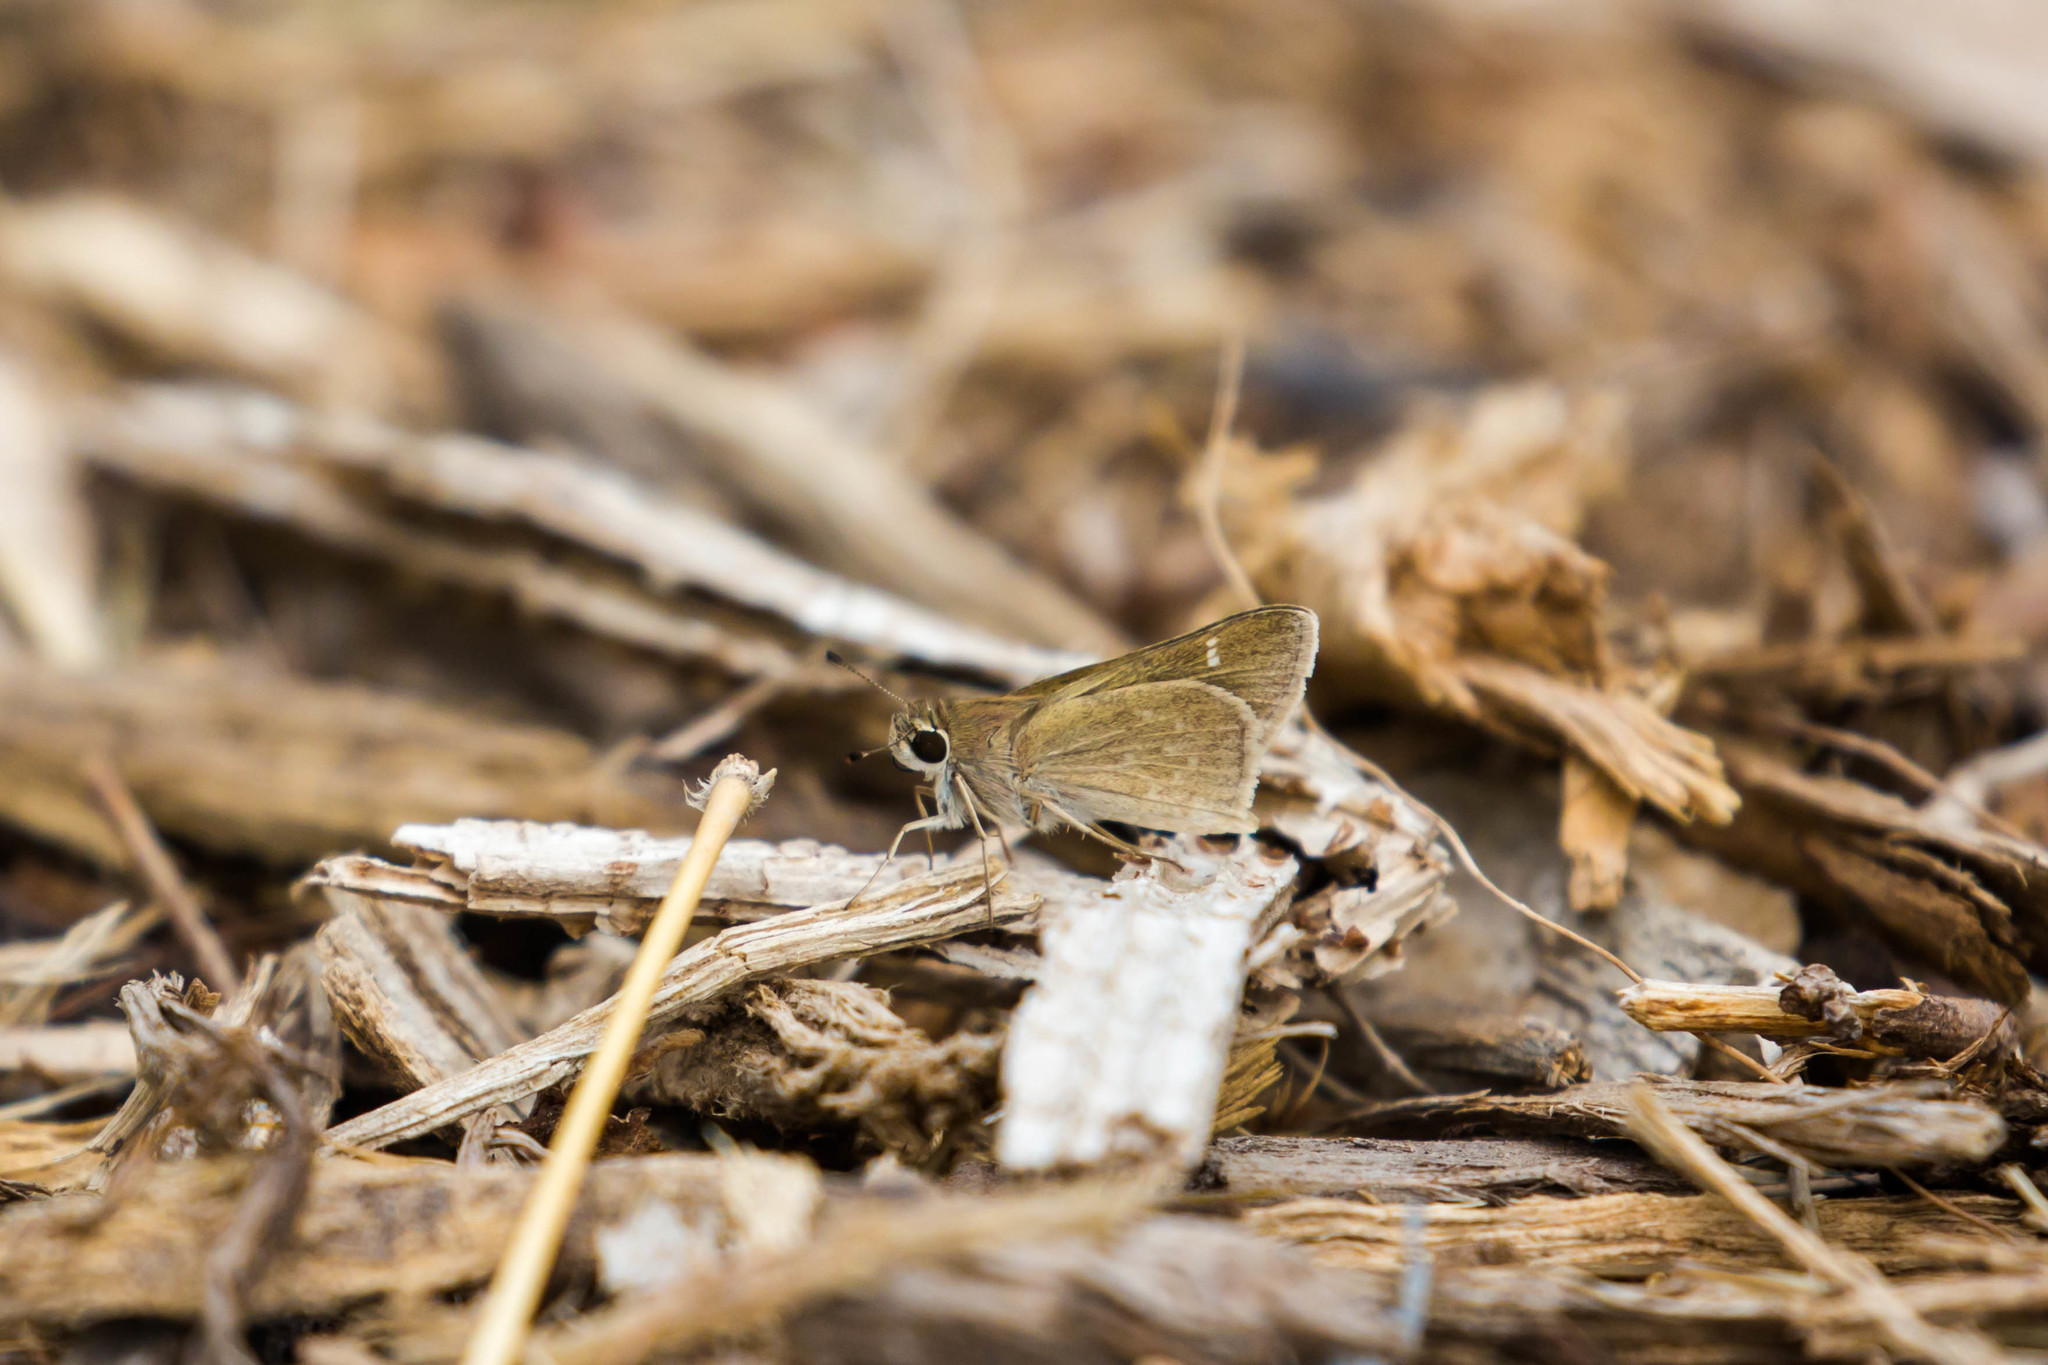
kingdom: Animalia
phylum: Arthropoda
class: Insecta
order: Lepidoptera
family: Hesperiidae
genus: Lerodea
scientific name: Lerodea eufala
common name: Eufala skipper
